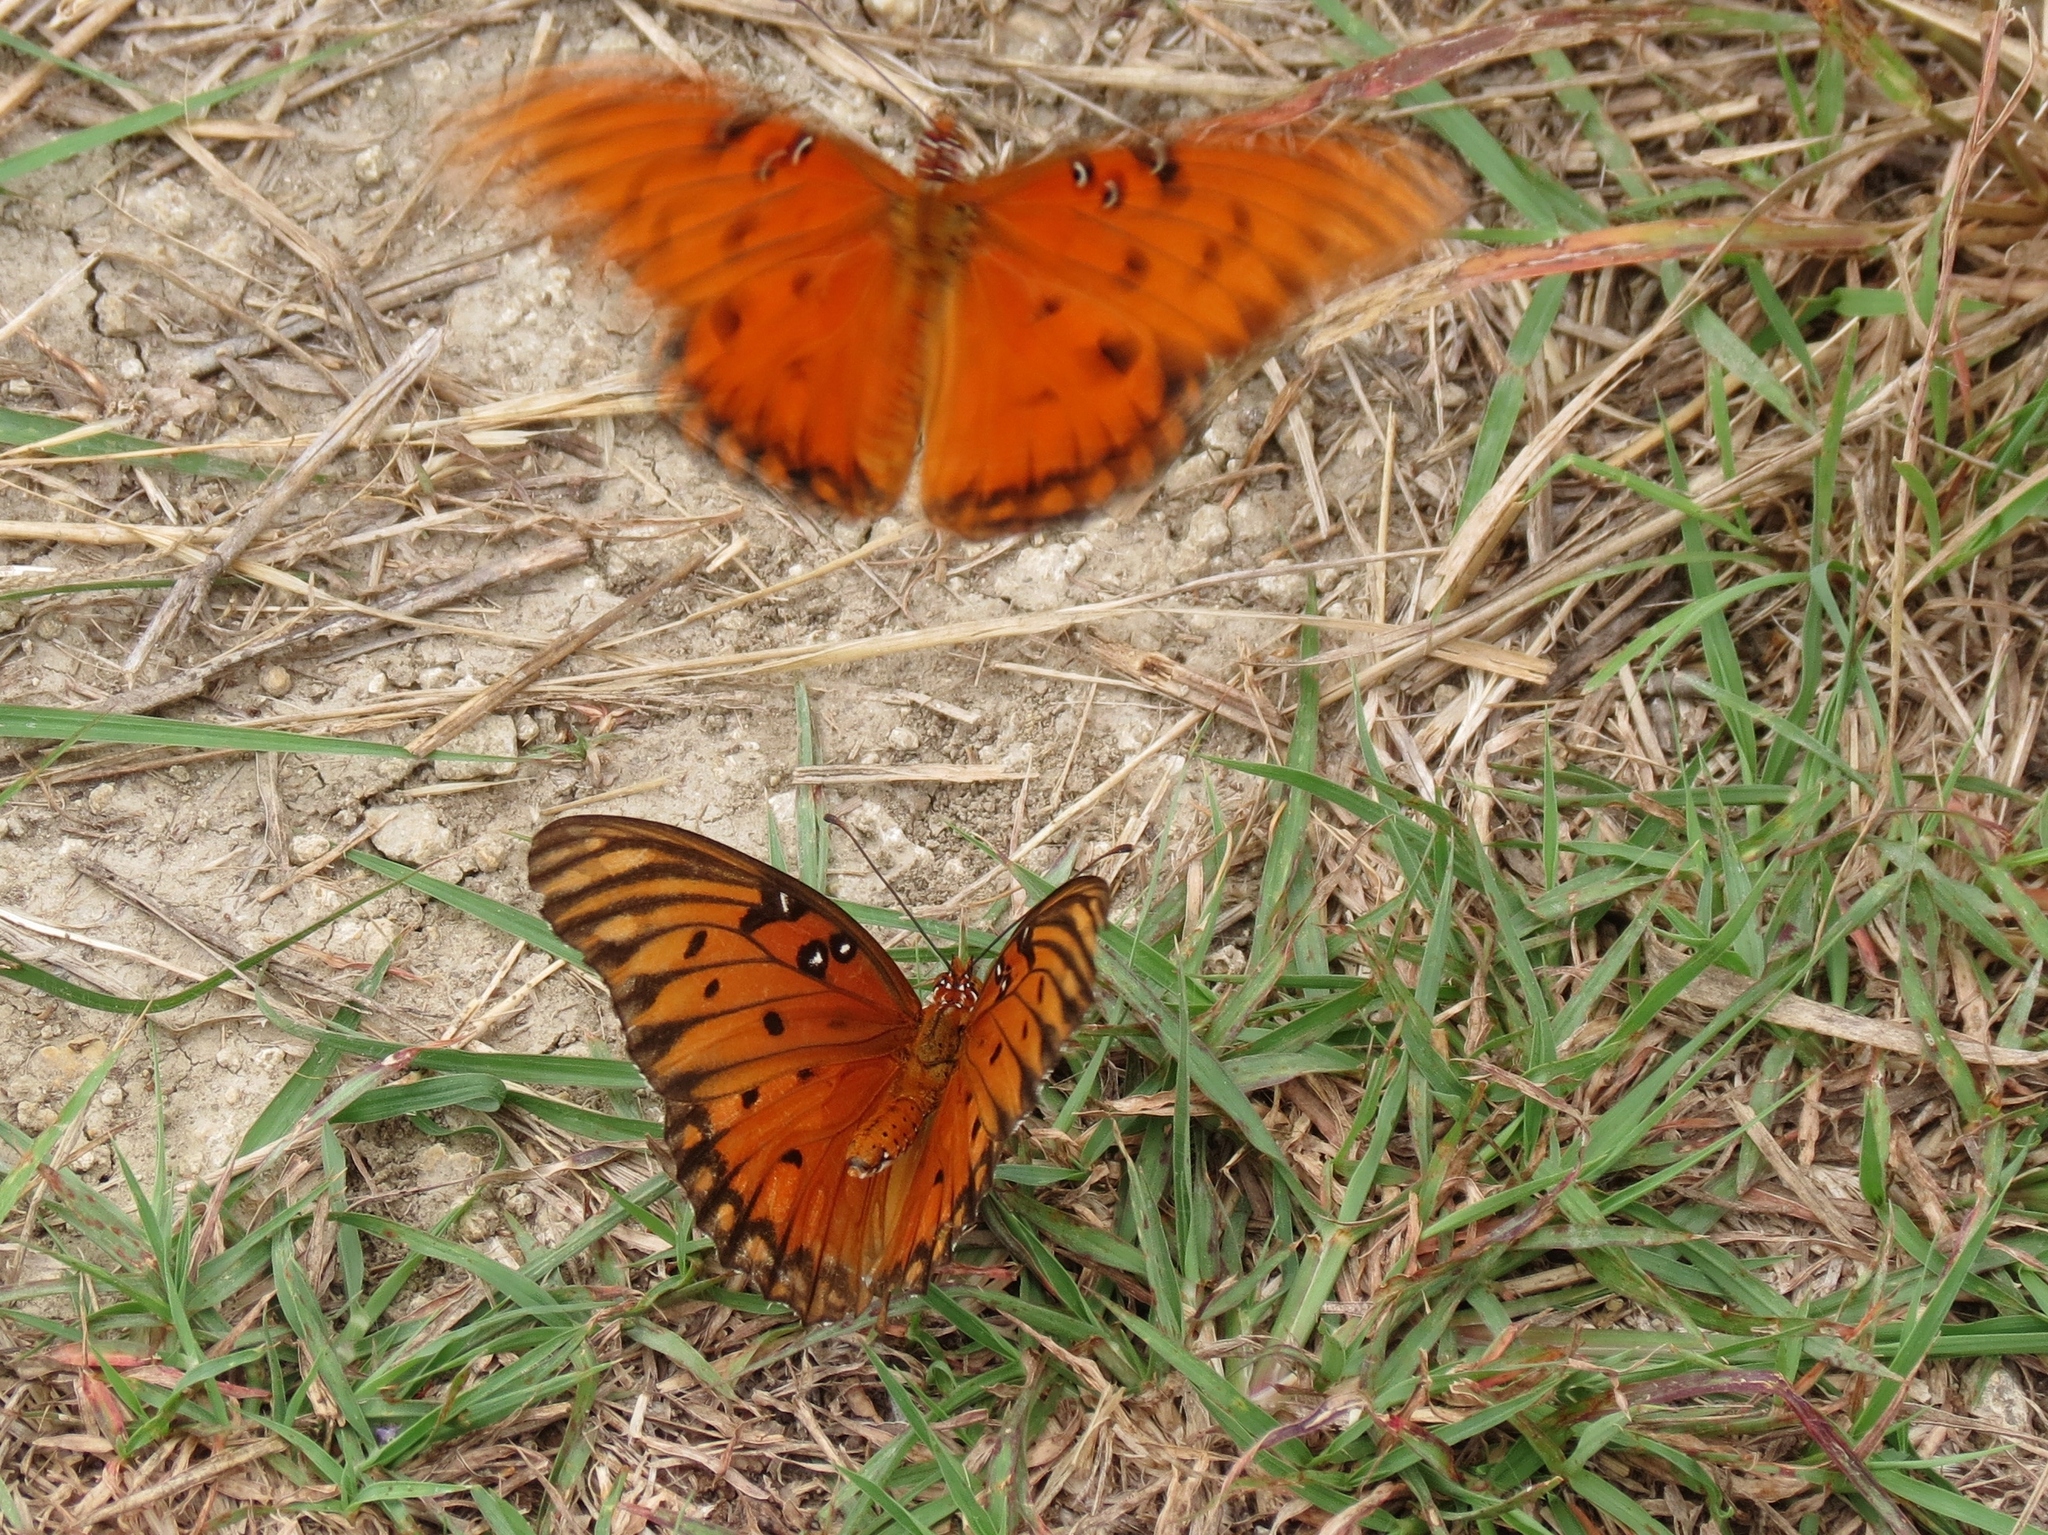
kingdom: Animalia
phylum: Arthropoda
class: Insecta
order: Lepidoptera
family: Nymphalidae
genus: Dione
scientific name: Dione vanillae
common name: Gulf fritillary
